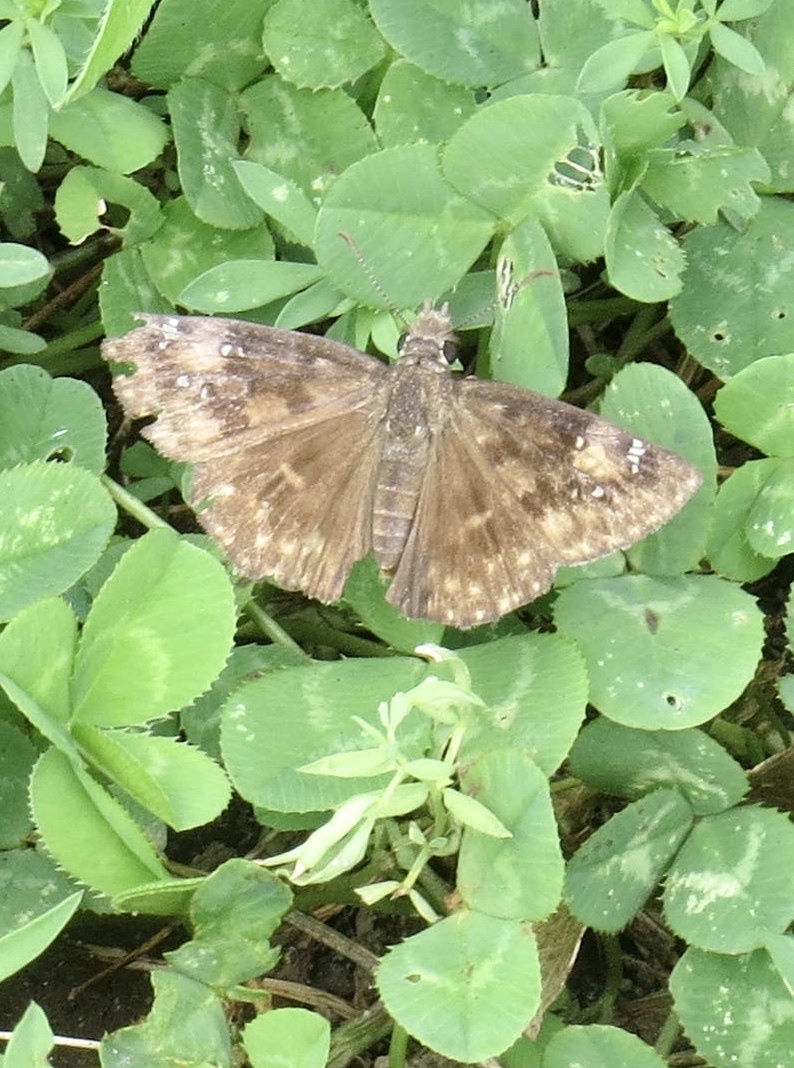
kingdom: Animalia
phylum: Arthropoda
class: Insecta
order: Lepidoptera
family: Hesperiidae
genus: Erynnis
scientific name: Erynnis baptisiae
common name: Wild indigo duskywing
